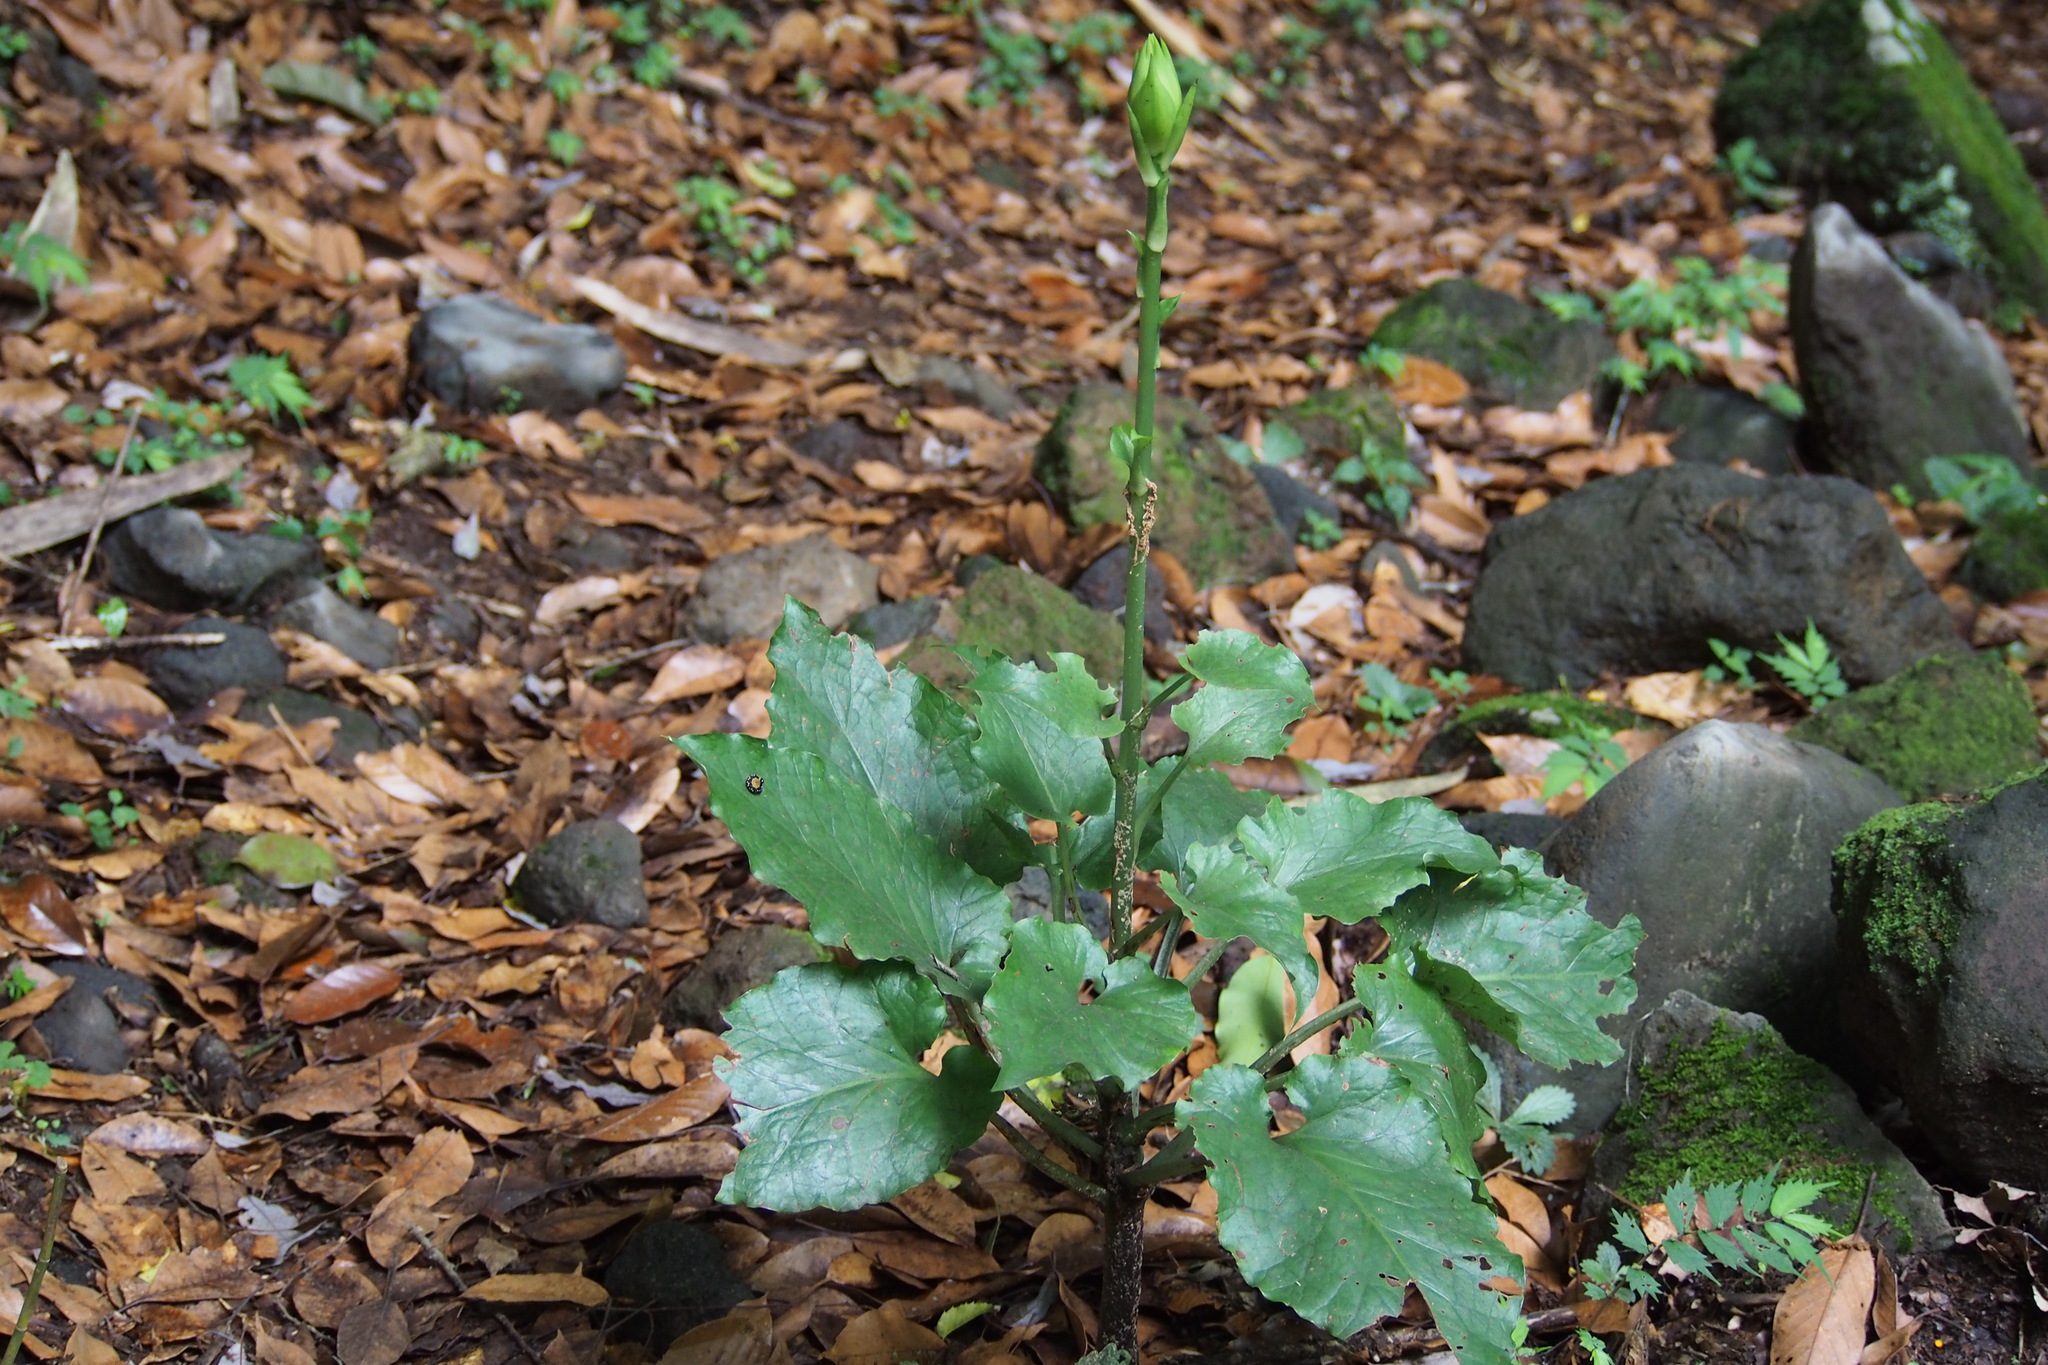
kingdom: Plantae
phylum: Tracheophyta
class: Liliopsida
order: Liliales
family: Liliaceae
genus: Cardiocrinum
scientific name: Cardiocrinum cordatum
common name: Lily
